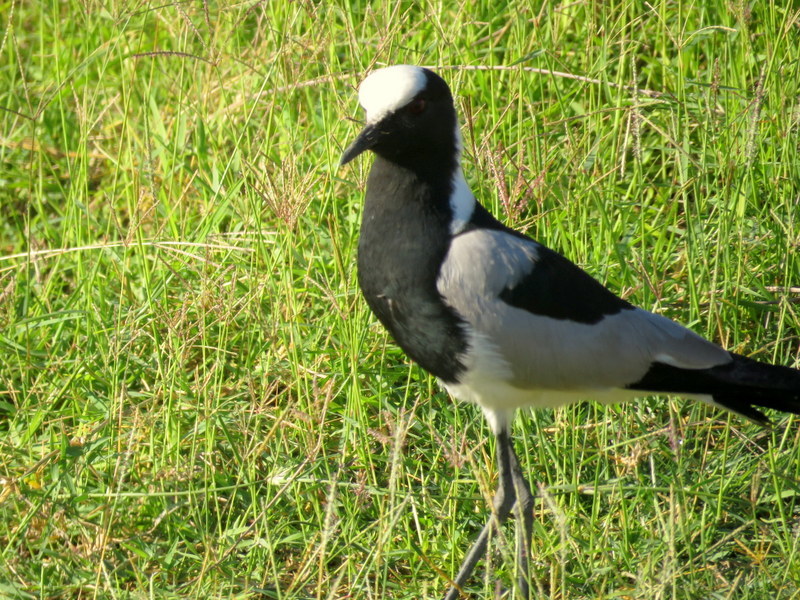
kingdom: Animalia
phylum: Chordata
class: Aves
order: Charadriiformes
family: Charadriidae
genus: Vanellus
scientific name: Vanellus armatus
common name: Blacksmith lapwing
